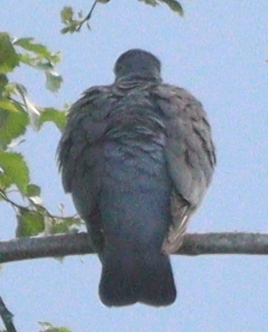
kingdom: Animalia
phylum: Chordata
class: Aves
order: Columbiformes
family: Columbidae
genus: Columba
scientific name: Columba palumbus
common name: Common wood pigeon
